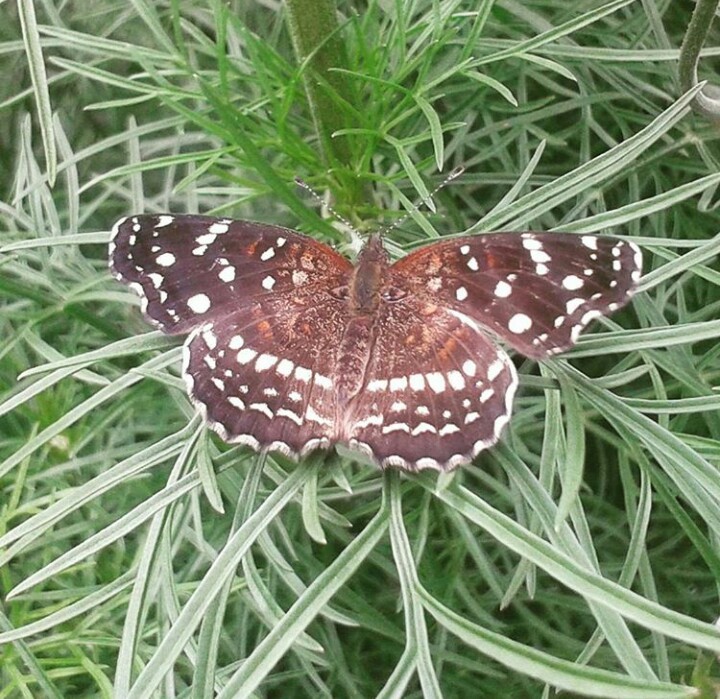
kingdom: Animalia
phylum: Arthropoda
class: Insecta
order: Lepidoptera
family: Nymphalidae
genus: Anthanassa
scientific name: Anthanassa texana
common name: Texan crescent
